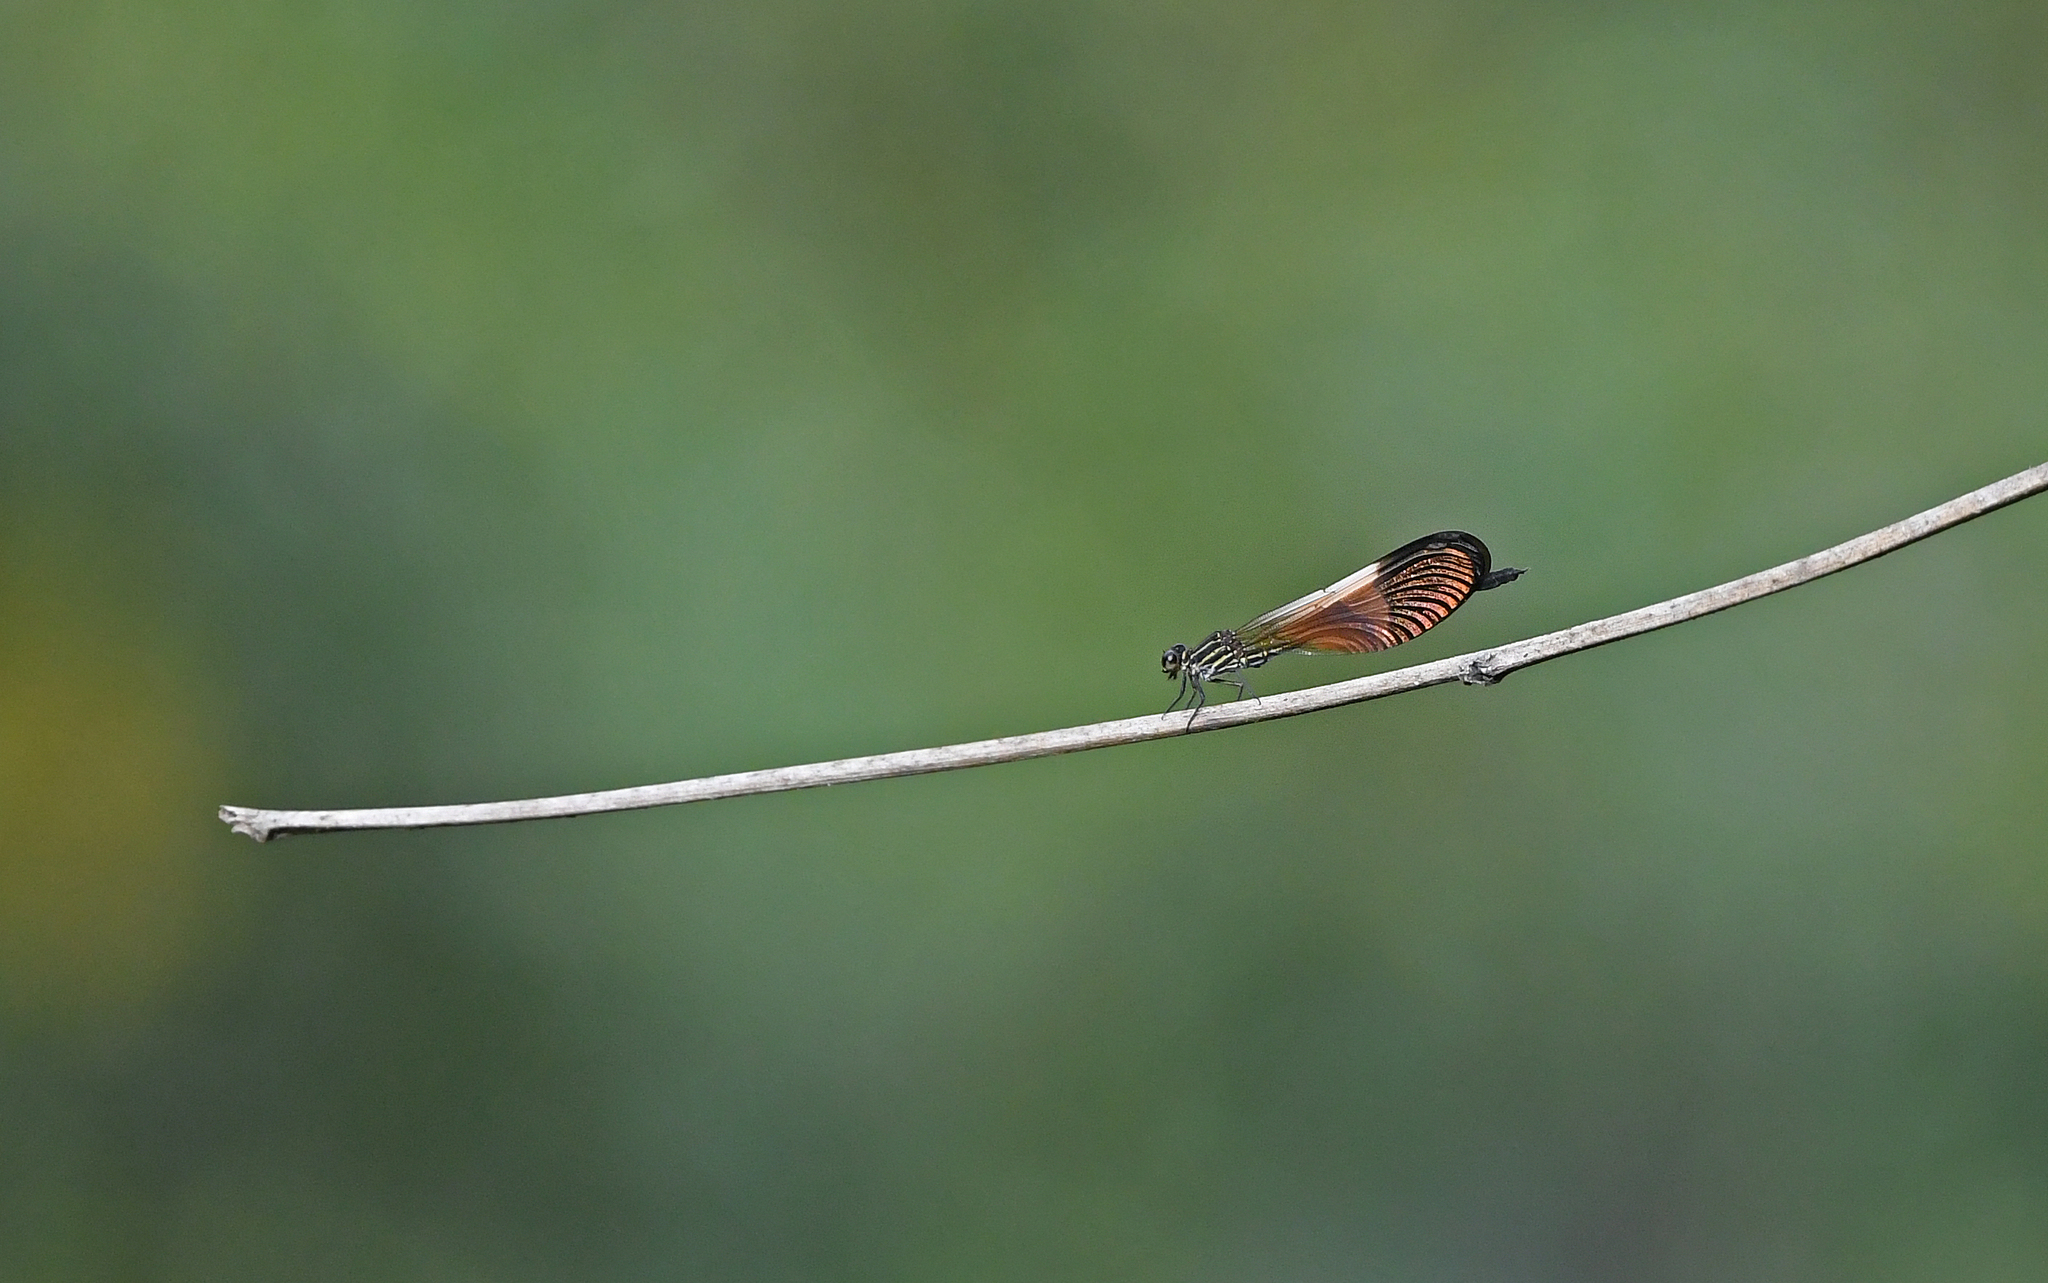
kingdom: Animalia
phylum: Arthropoda
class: Insecta
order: Odonata
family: Polythoridae
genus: Polythore
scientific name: Polythore boliviana
